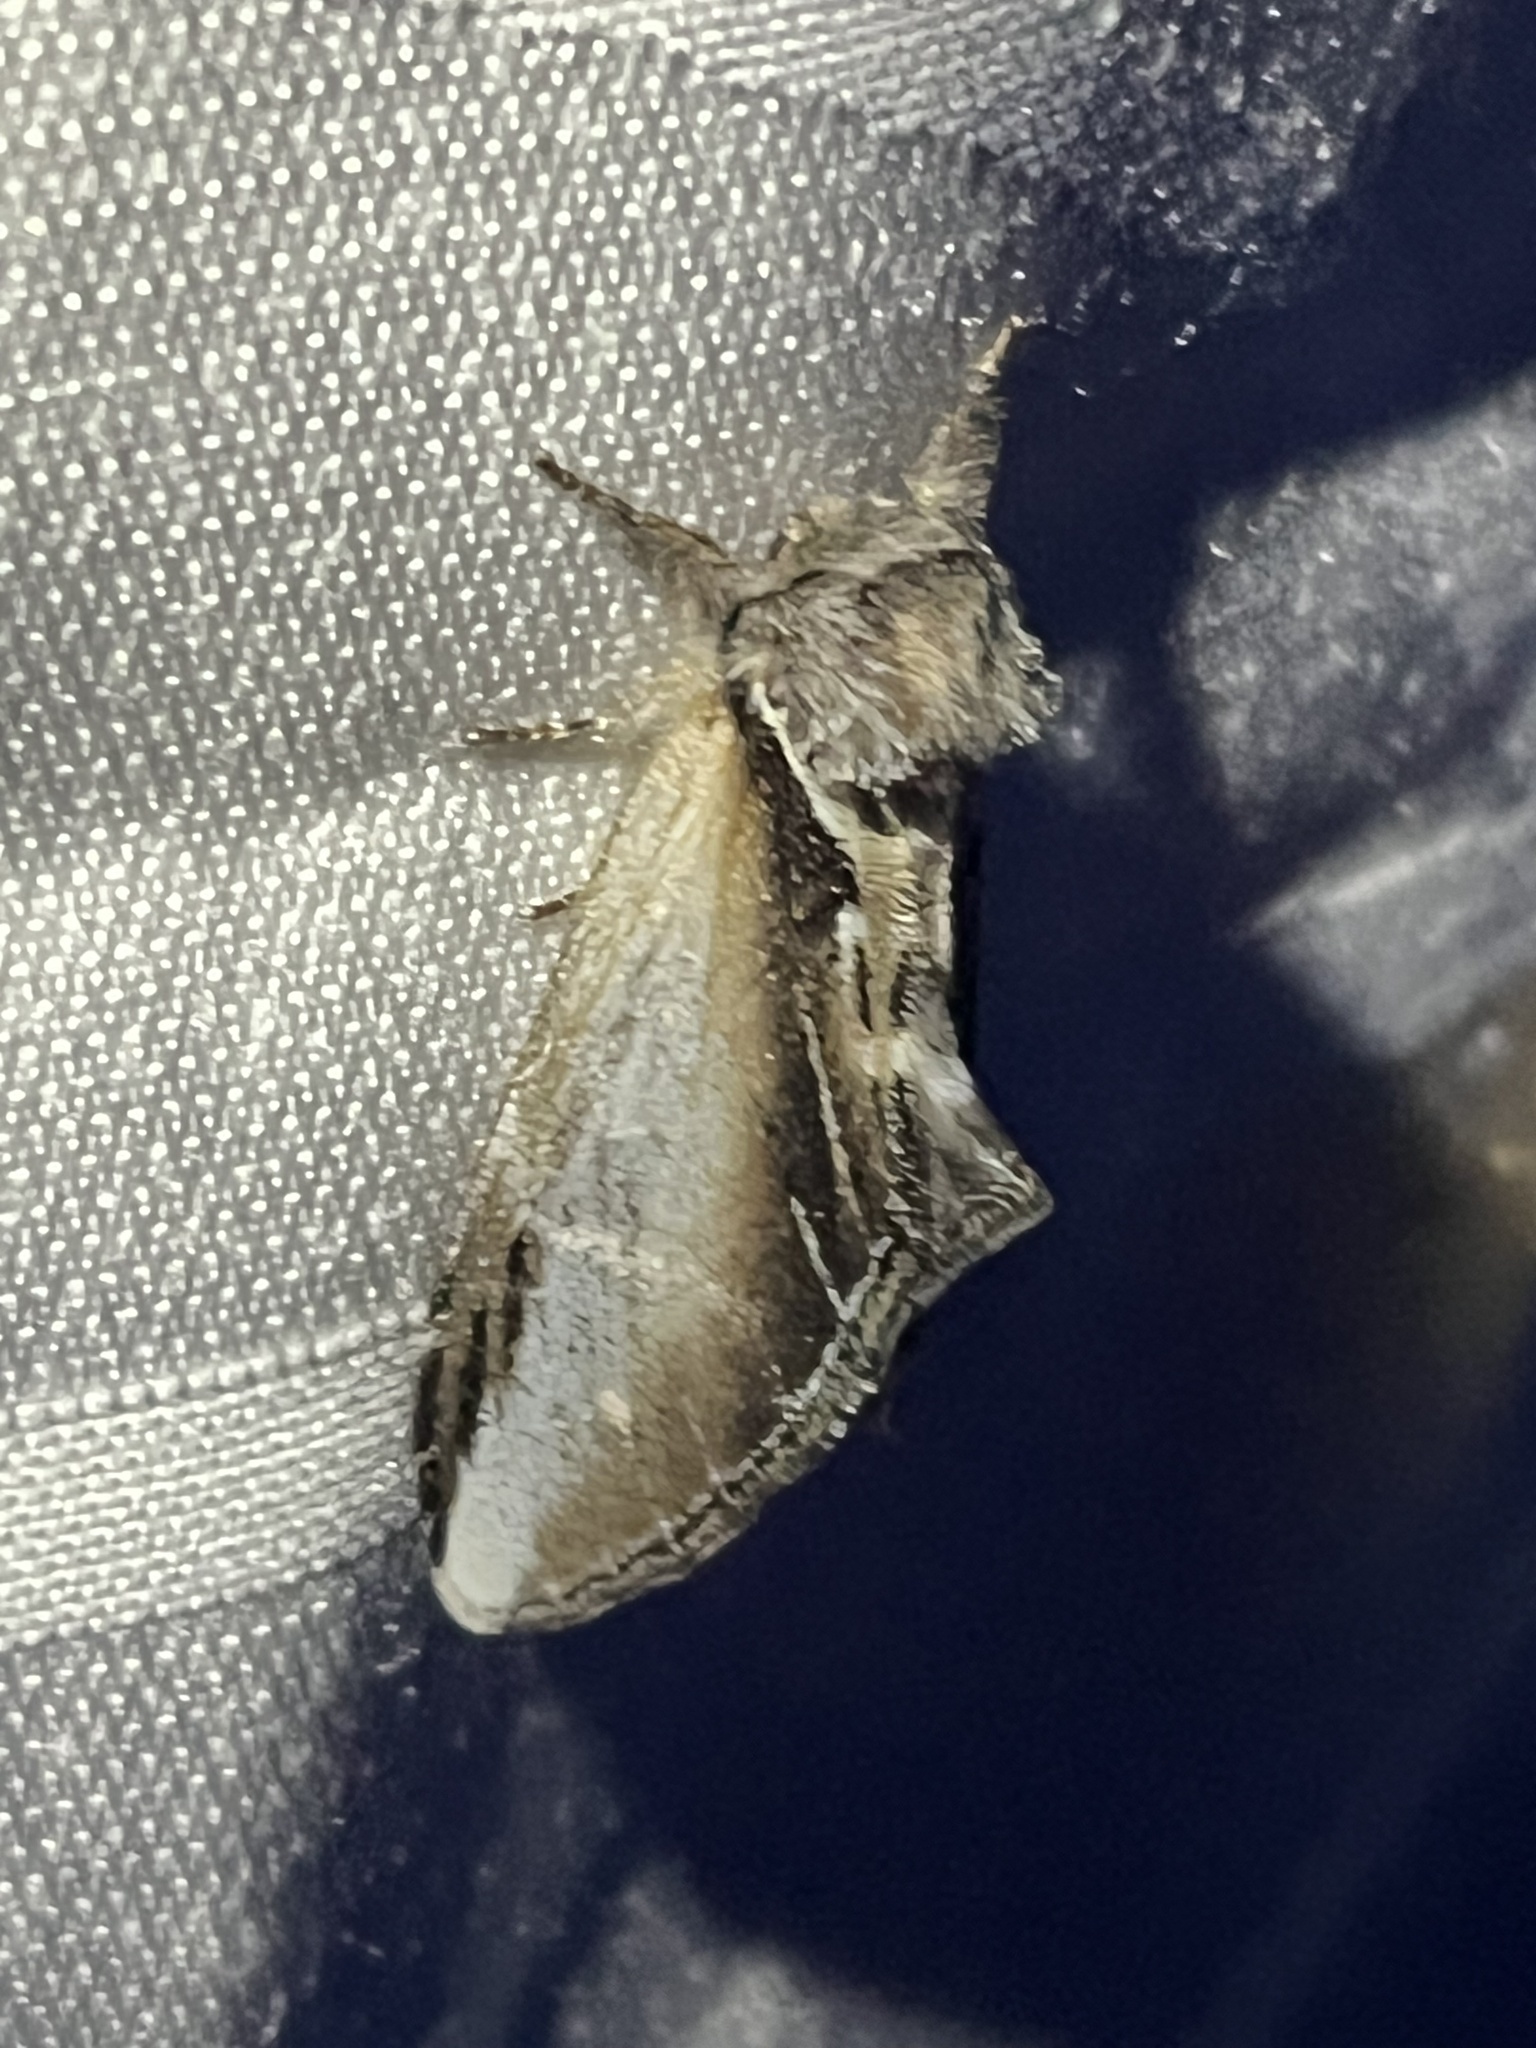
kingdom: Animalia
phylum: Arthropoda
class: Insecta
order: Lepidoptera
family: Notodontidae
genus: Pheosia
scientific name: Pheosia rimosa
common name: Black-rimmed prominent
